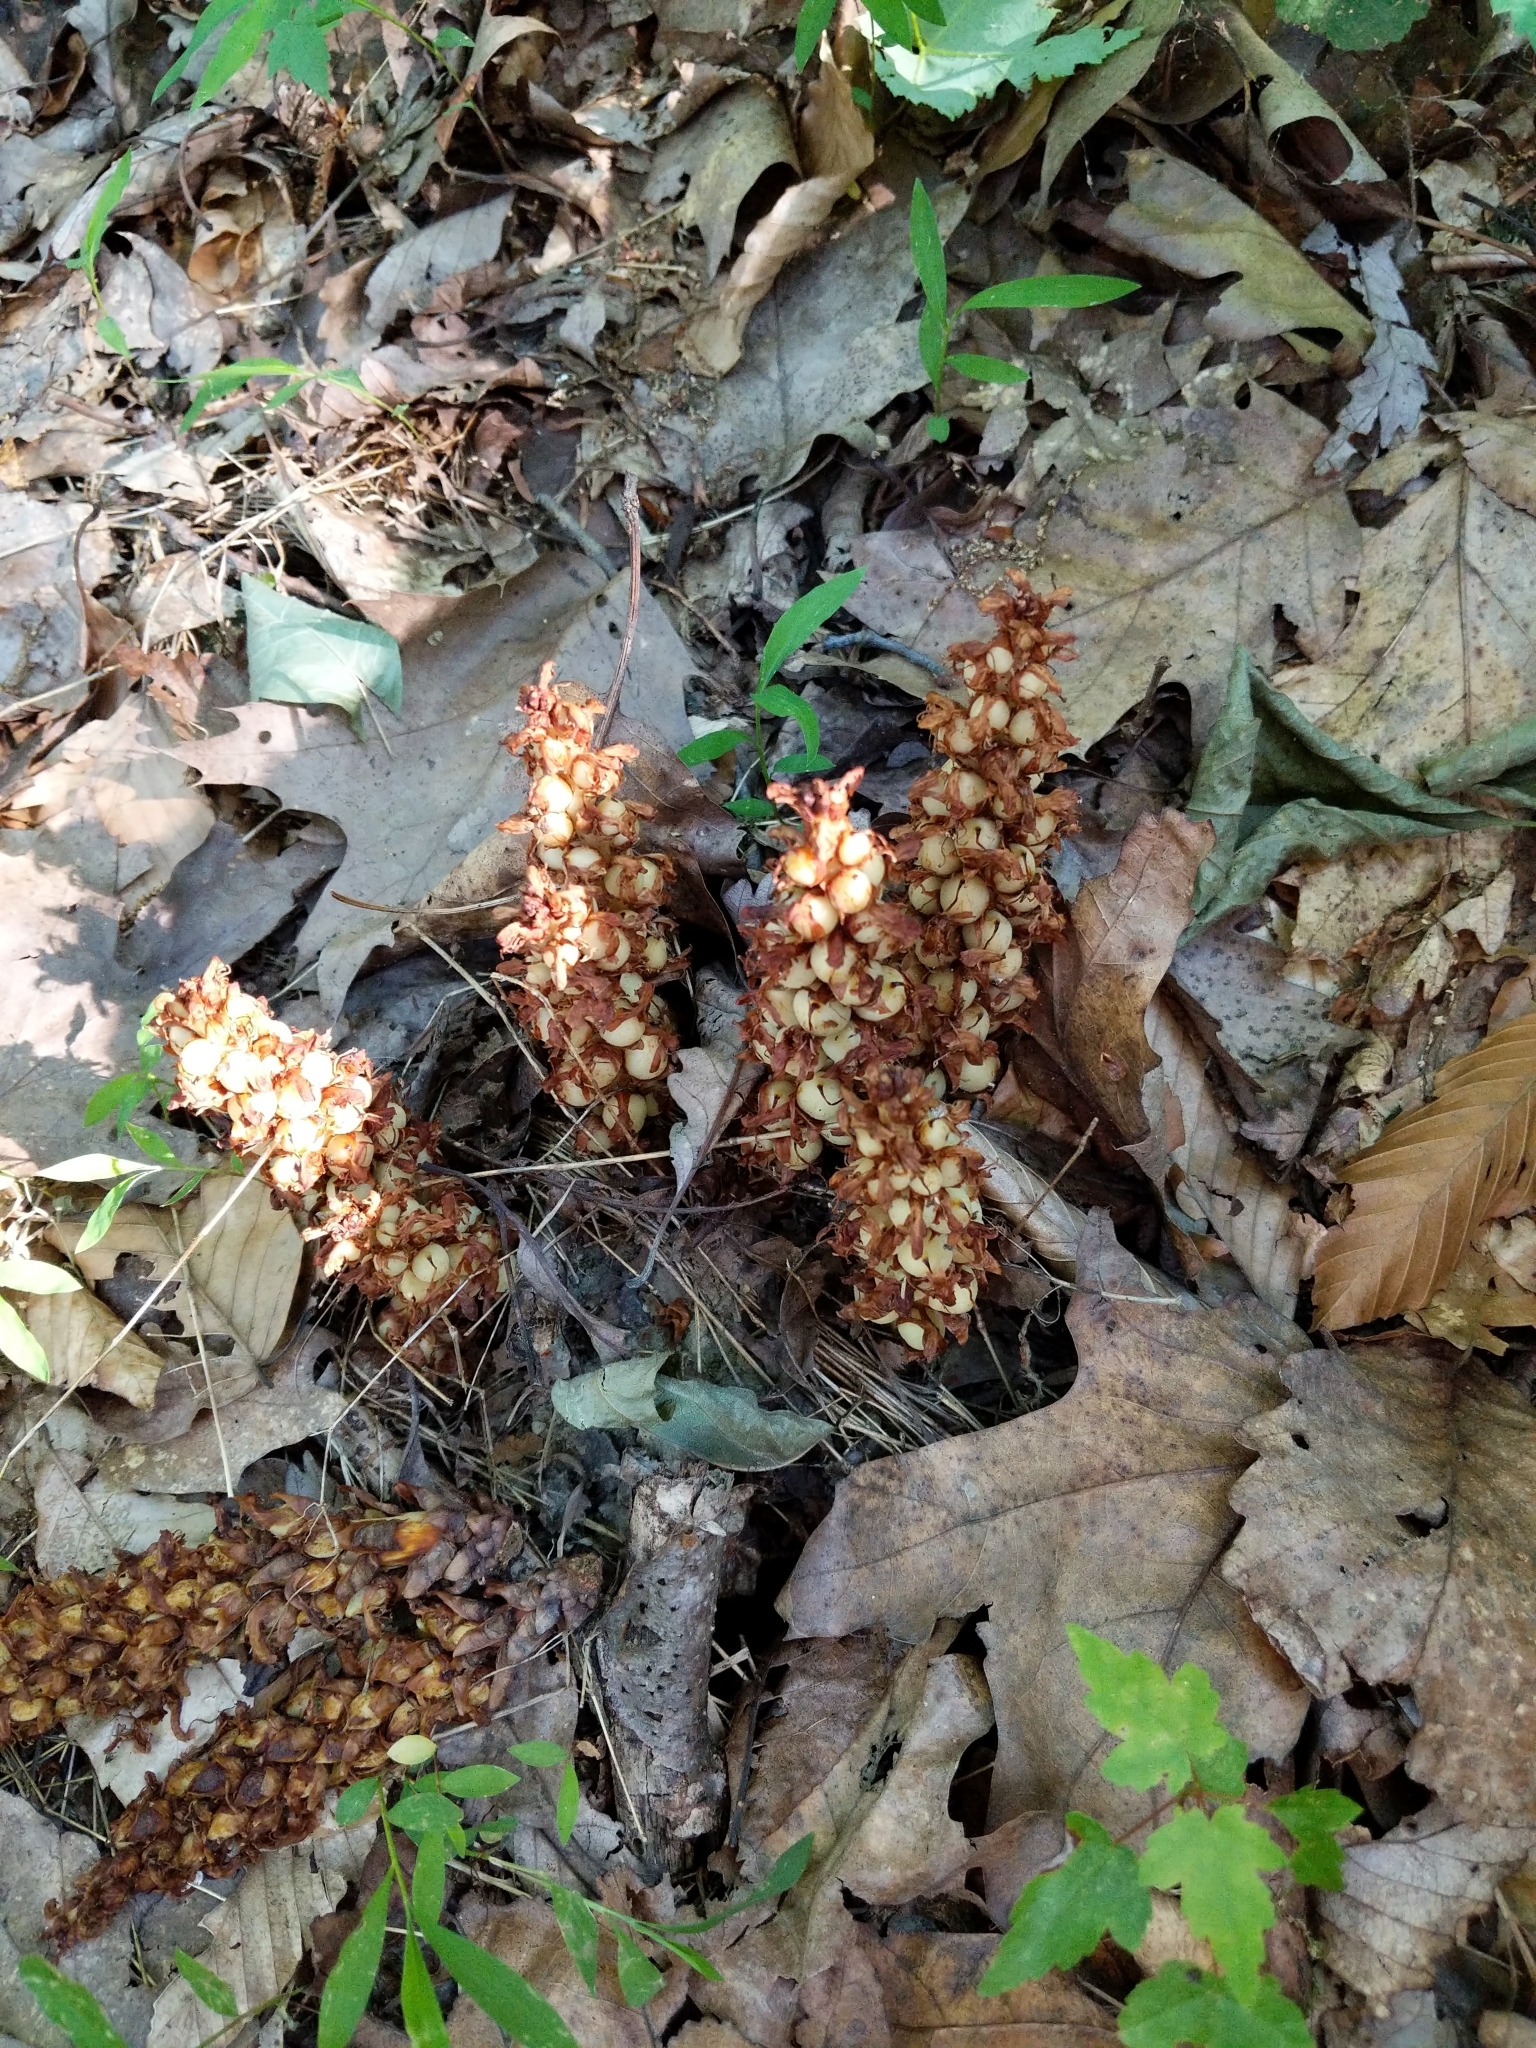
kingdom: Plantae
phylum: Tracheophyta
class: Magnoliopsida
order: Lamiales
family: Orobanchaceae
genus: Conopholis
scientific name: Conopholis americana
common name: American cancer-root
